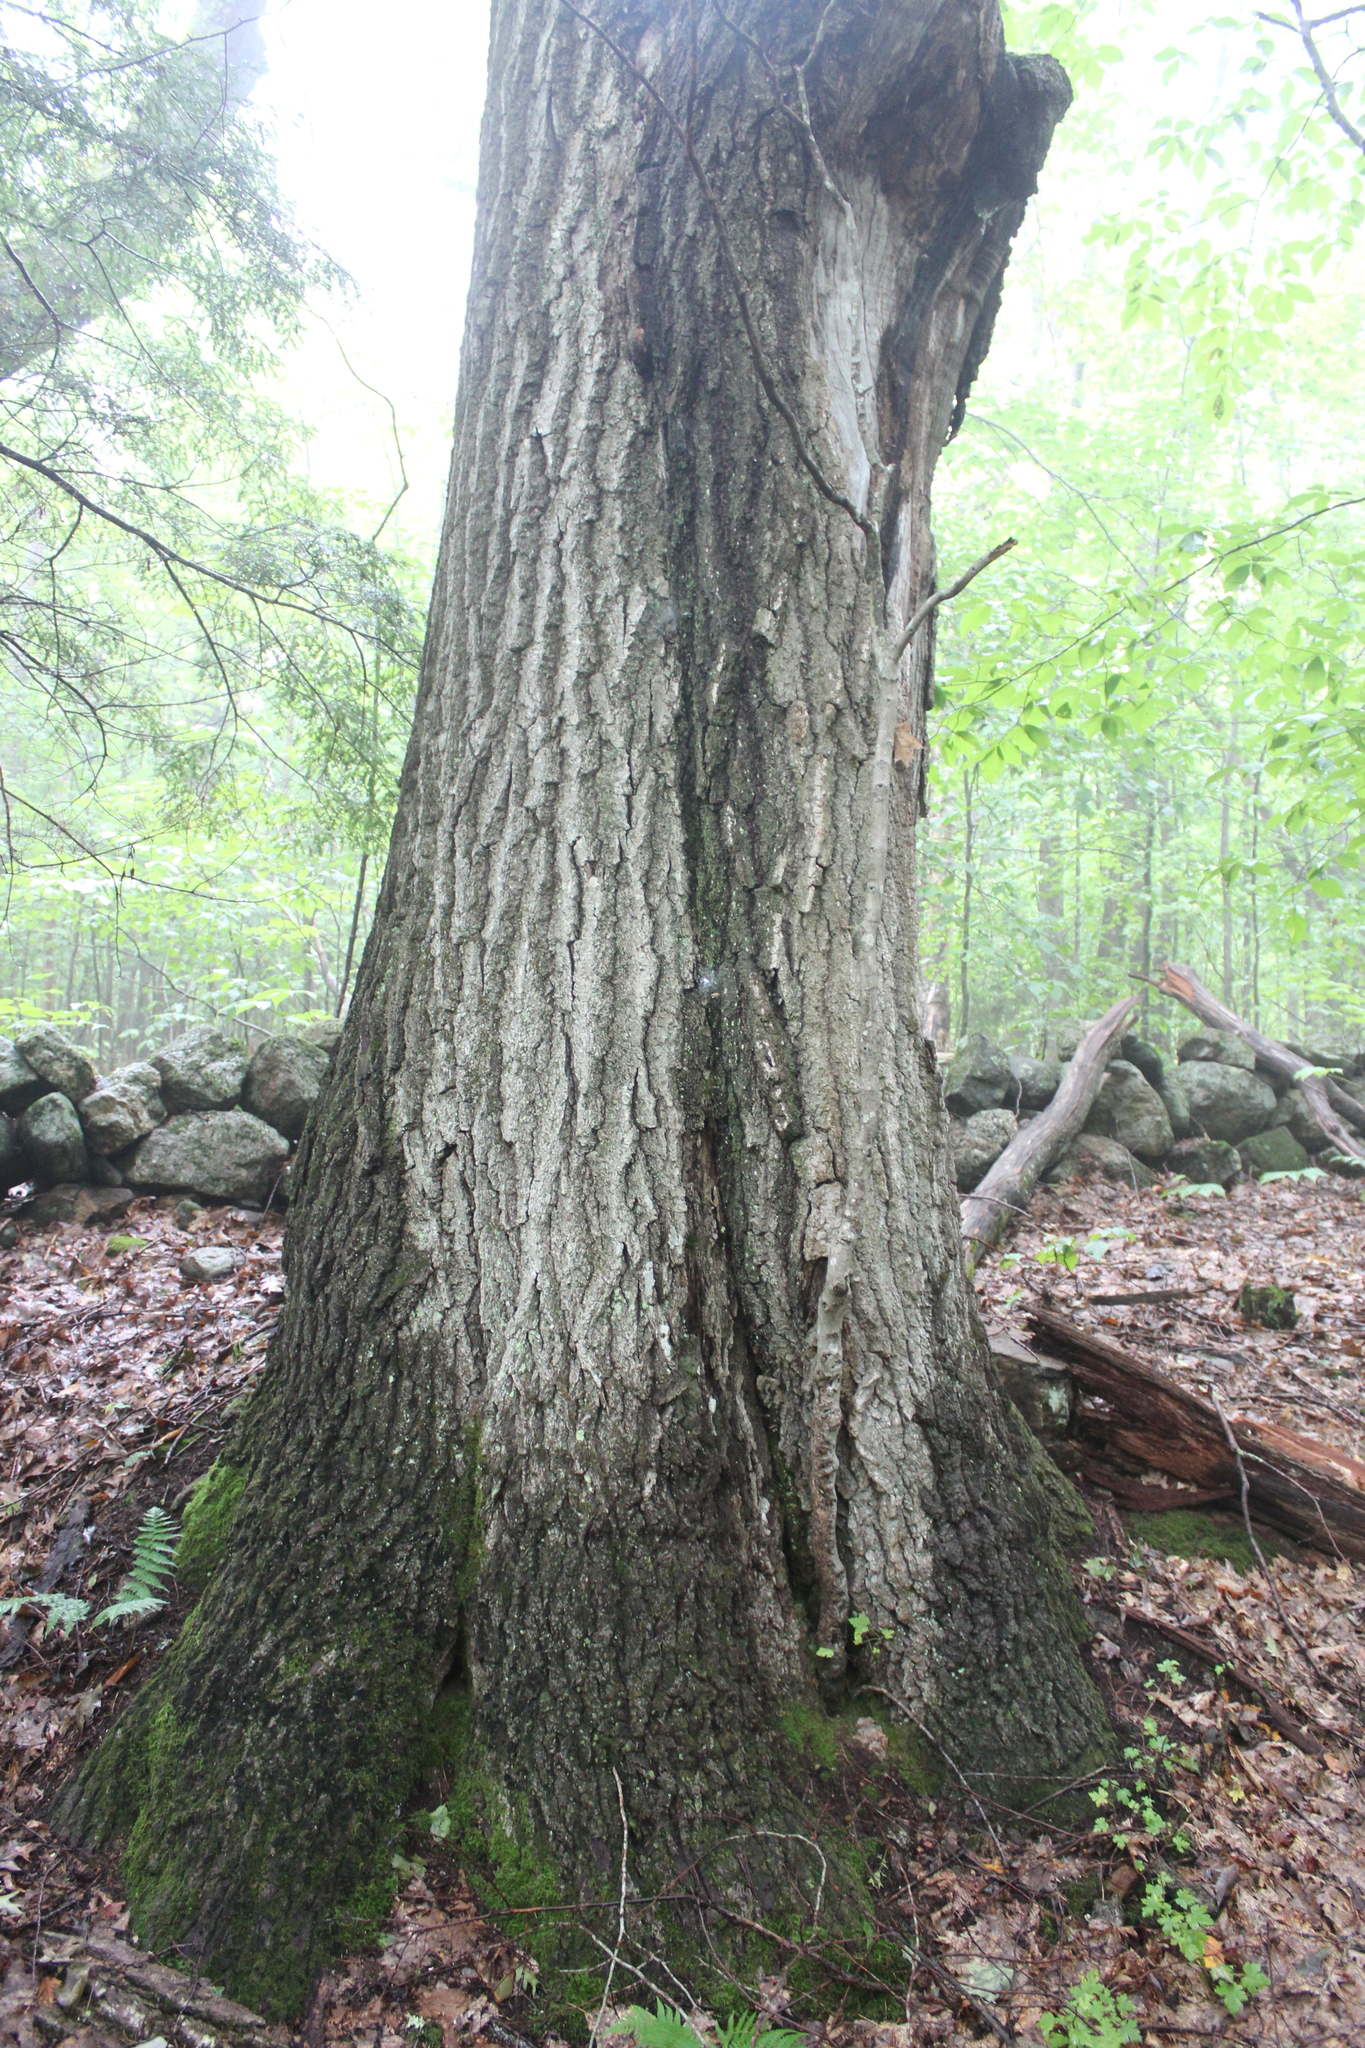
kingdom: Plantae
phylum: Tracheophyta
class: Magnoliopsida
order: Fagales
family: Fagaceae
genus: Quercus
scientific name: Quercus rubra
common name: Red oak
